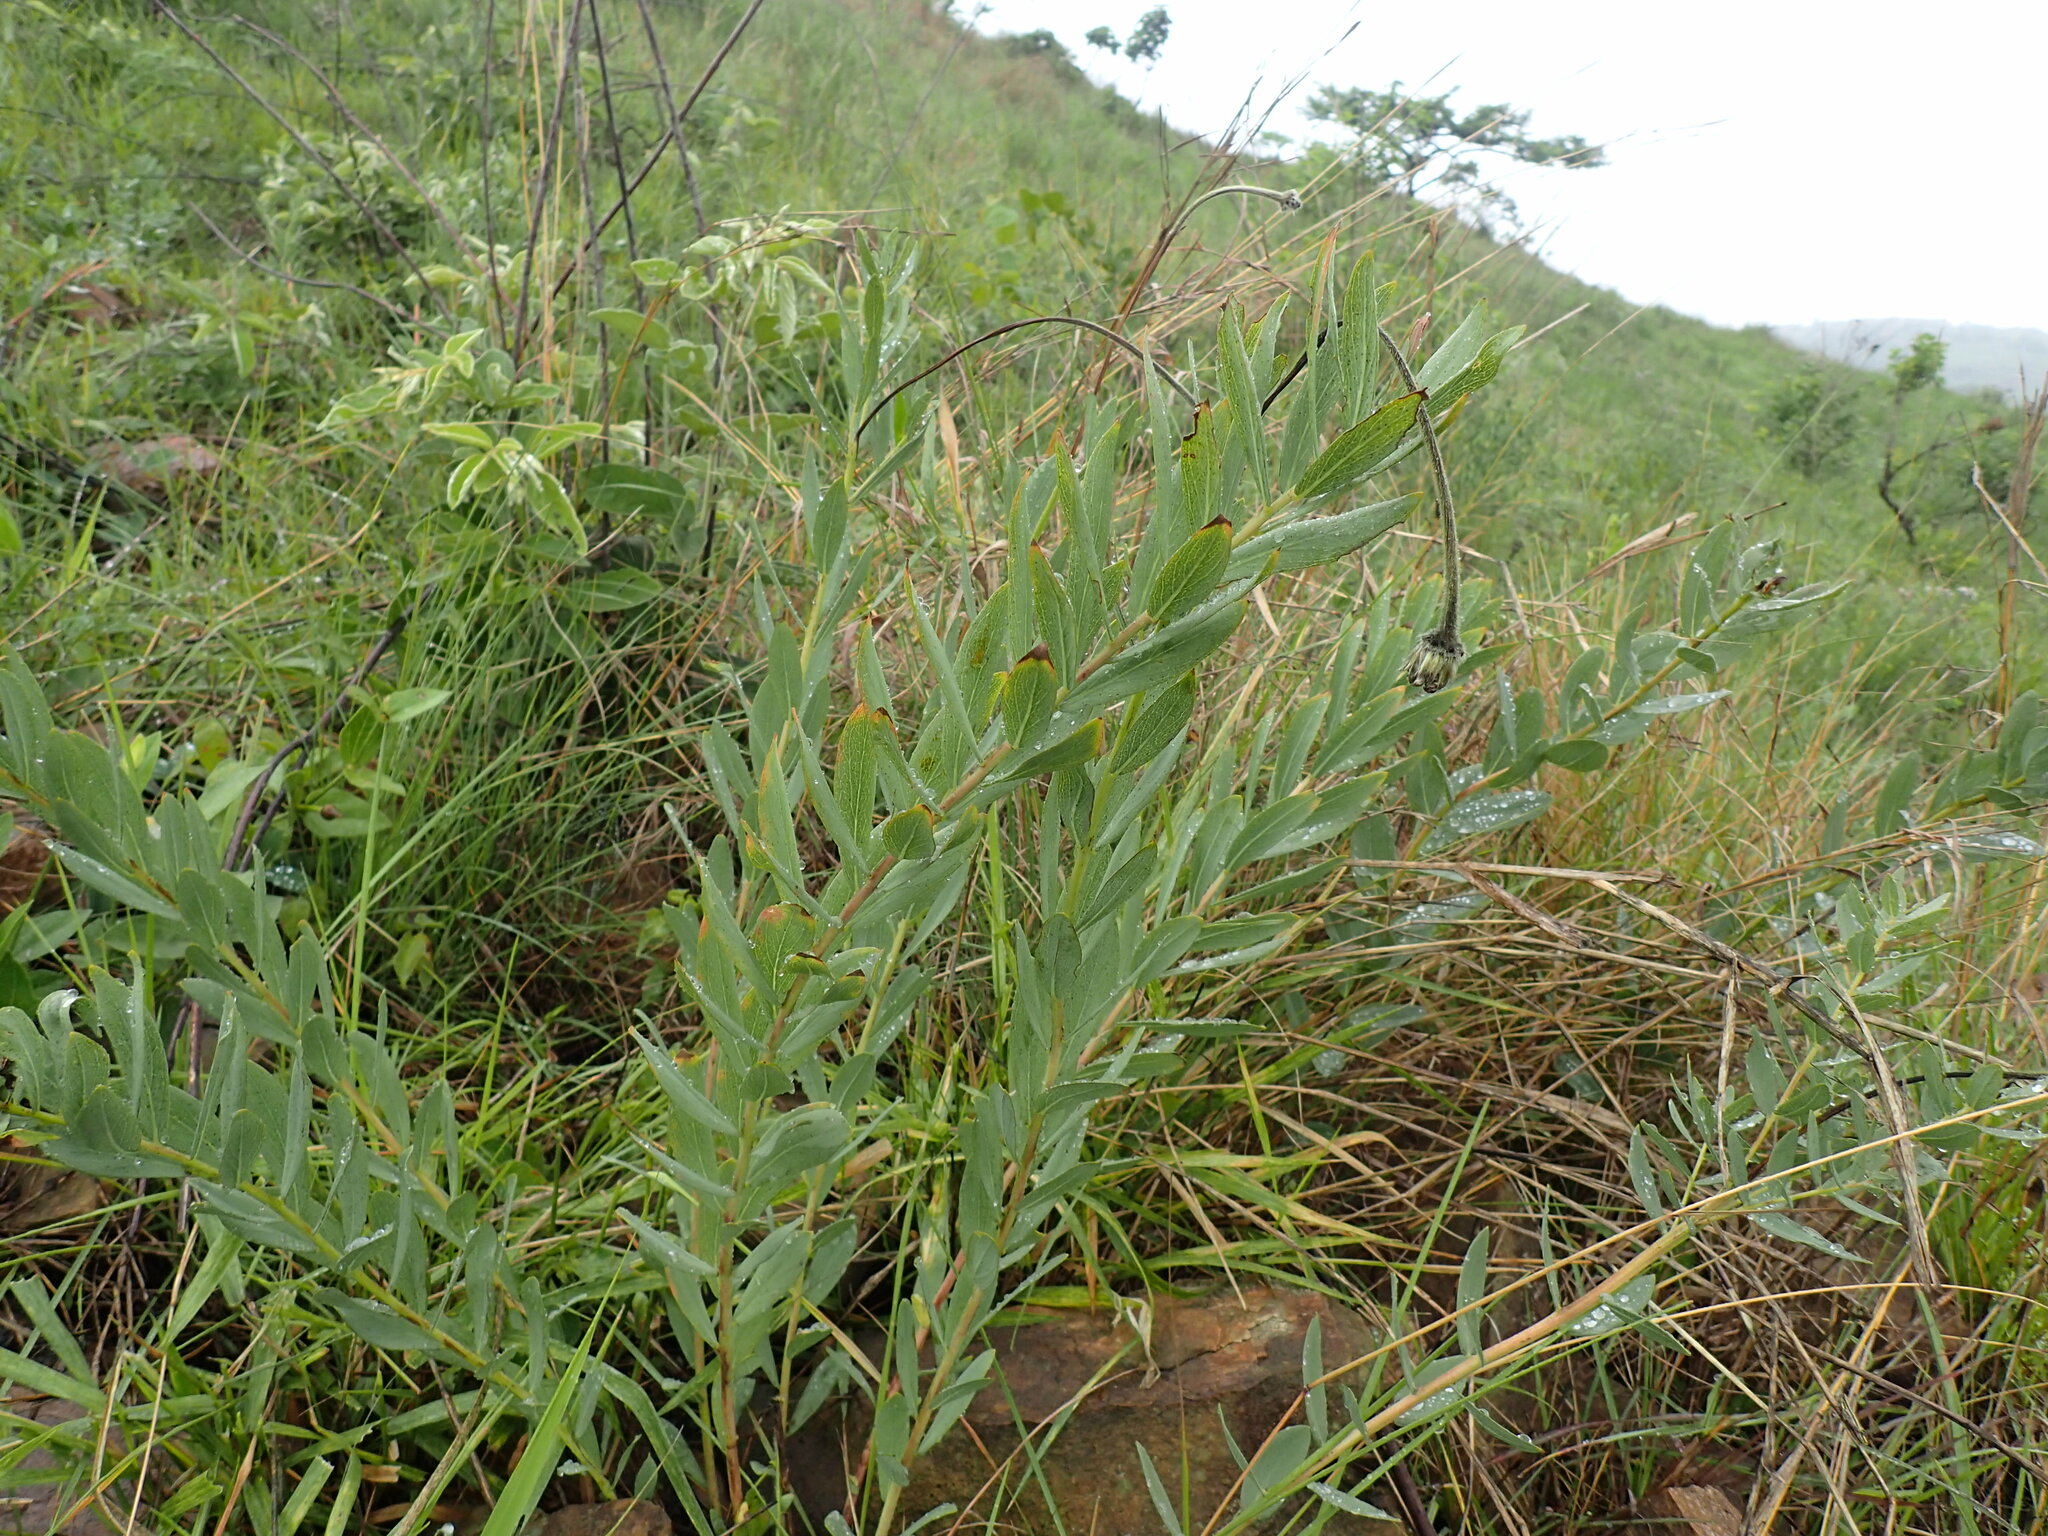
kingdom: Plantae
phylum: Tracheophyta
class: Magnoliopsida
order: Malvales
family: Thymelaeaceae
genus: Gnidia
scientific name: Gnidia kraussiana
